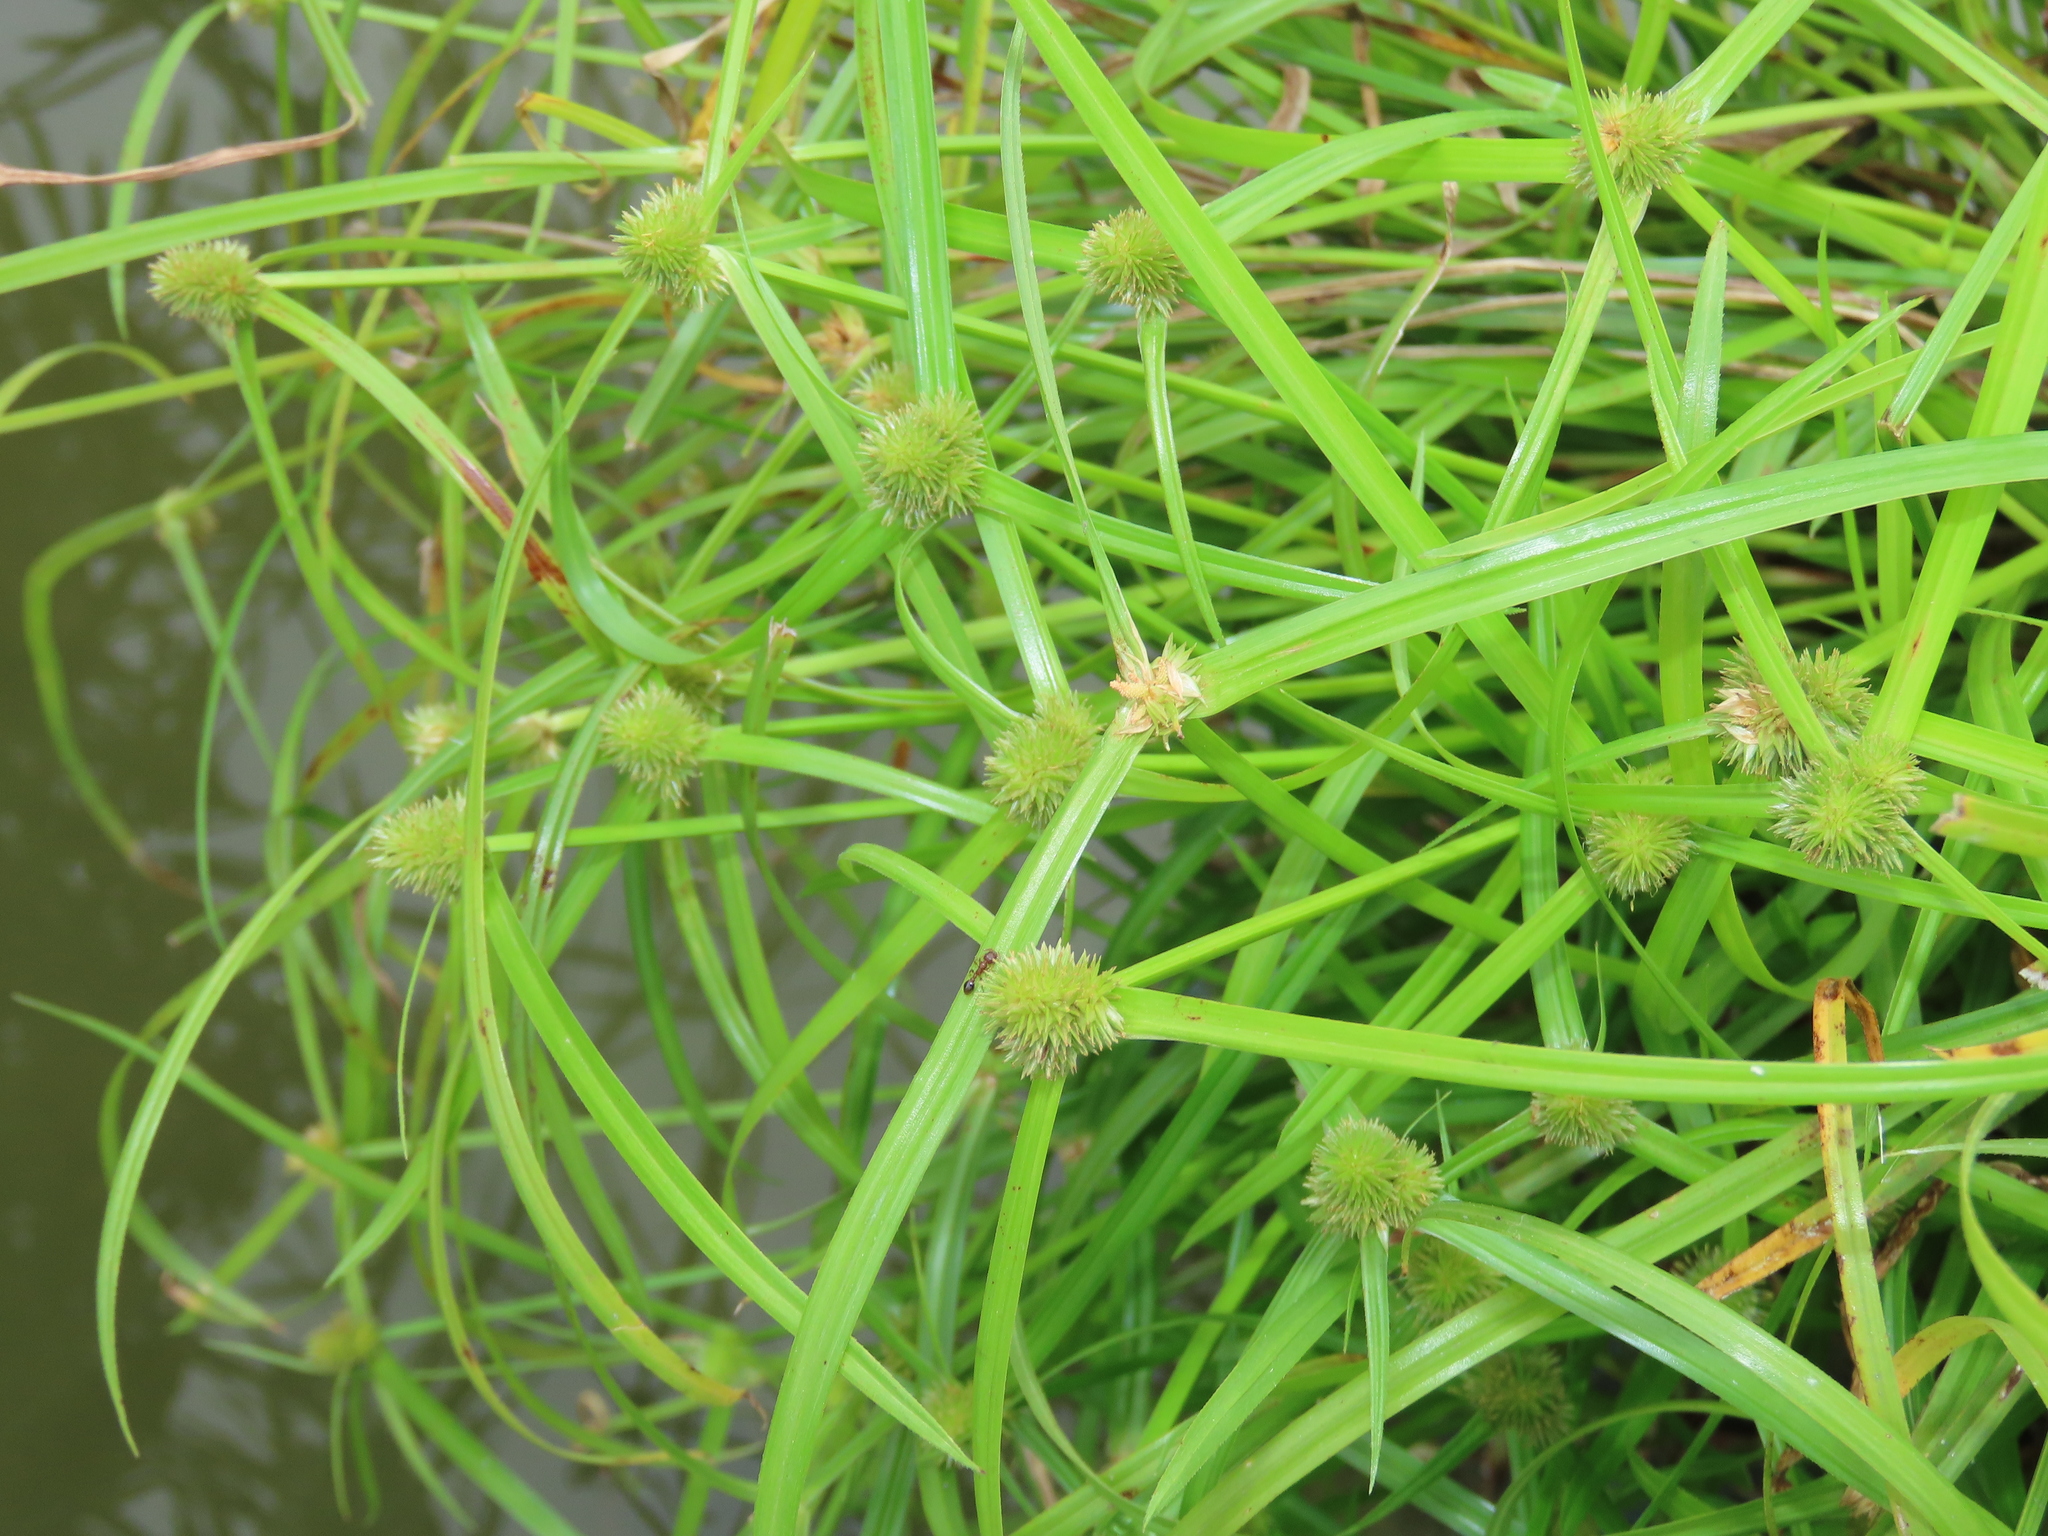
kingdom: Plantae
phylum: Tracheophyta
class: Liliopsida
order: Poales
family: Cyperaceae
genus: Cyperus
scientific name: Cyperus brevifolius
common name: Globe kyllinga
